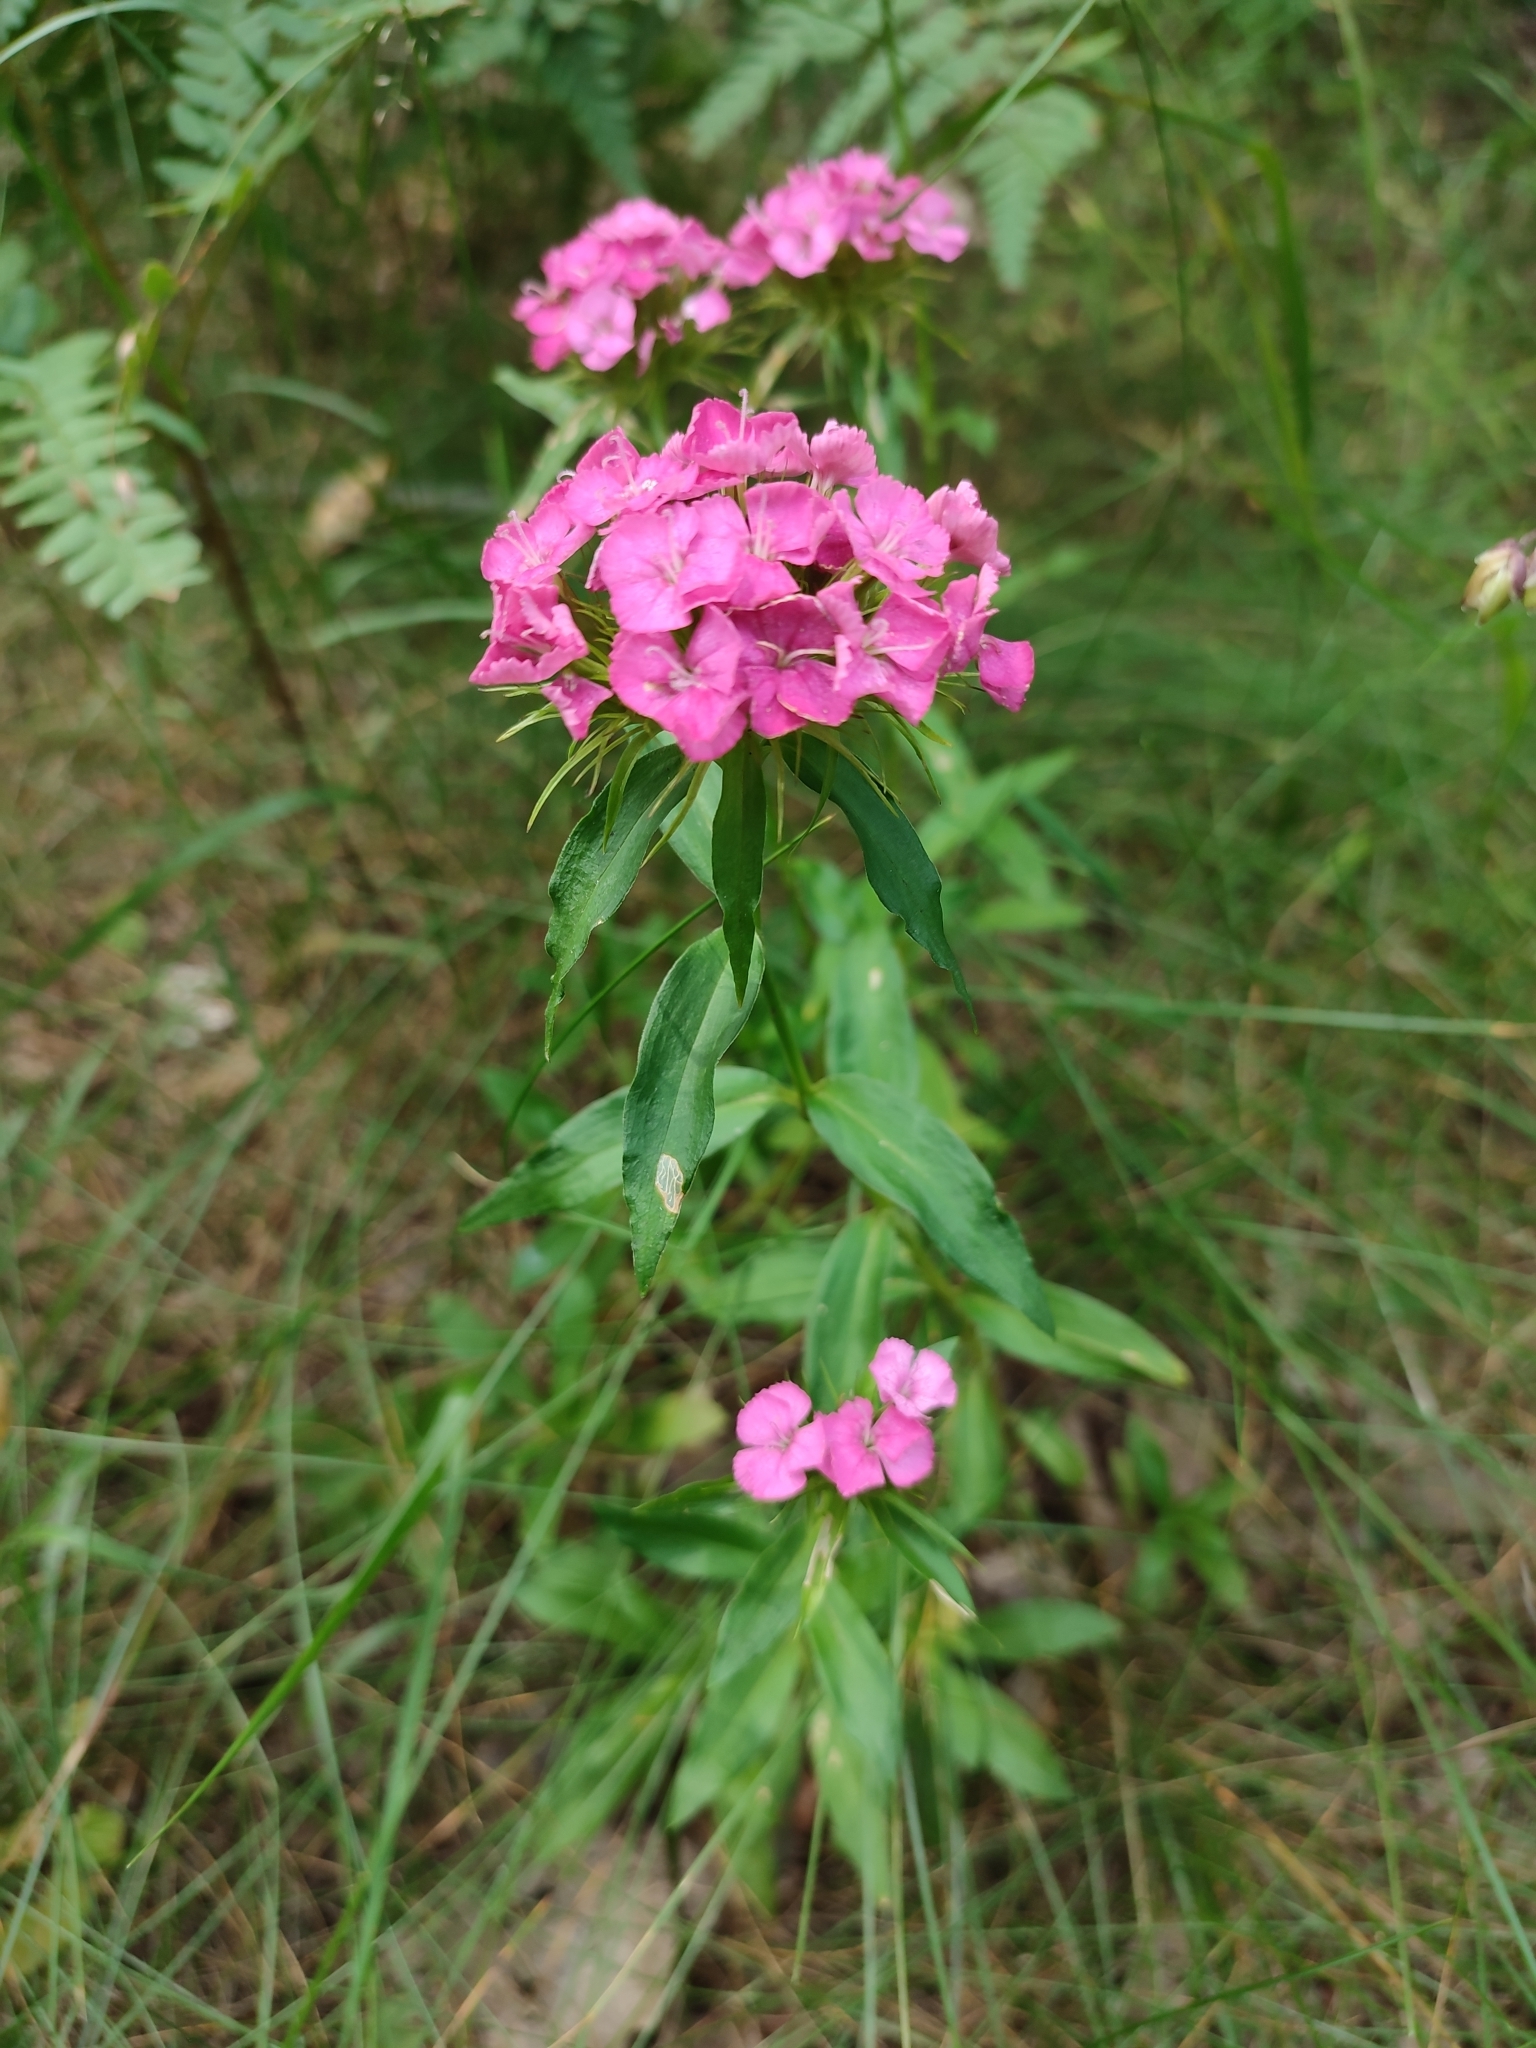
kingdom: Plantae
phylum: Tracheophyta
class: Magnoliopsida
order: Caryophyllales
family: Caryophyllaceae
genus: Dianthus
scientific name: Dianthus barbatus
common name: Sweet-william
